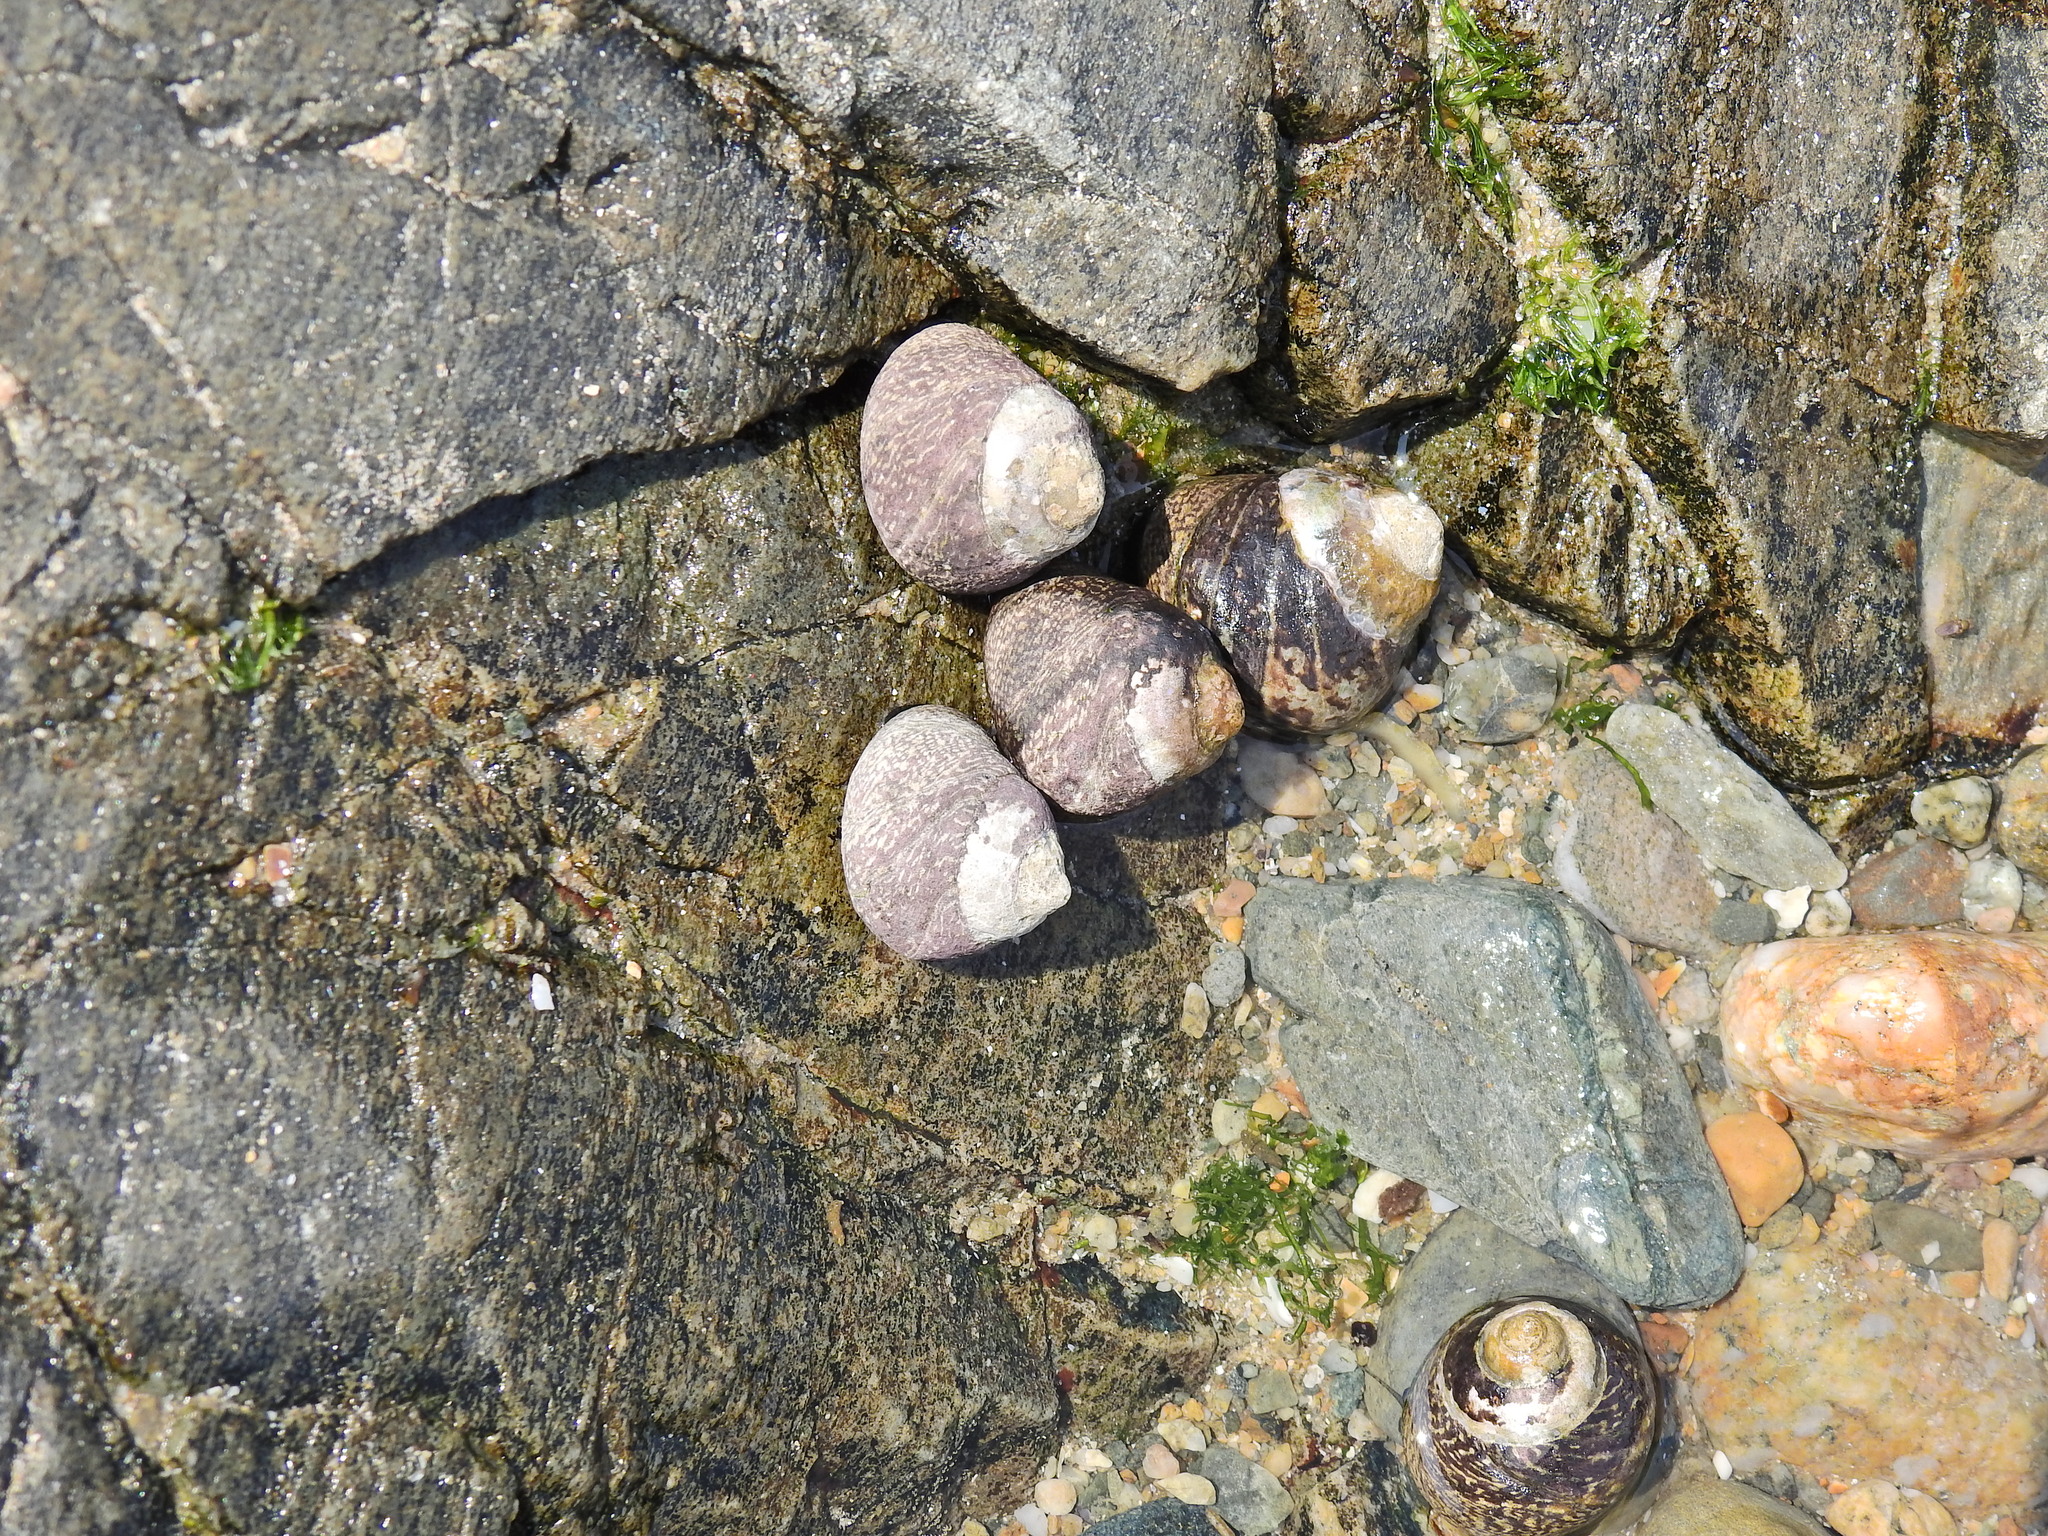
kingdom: Animalia
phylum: Mollusca
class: Gastropoda
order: Trochida
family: Trochidae
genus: Phorcus
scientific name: Phorcus lineatus
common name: Toothed top shell
